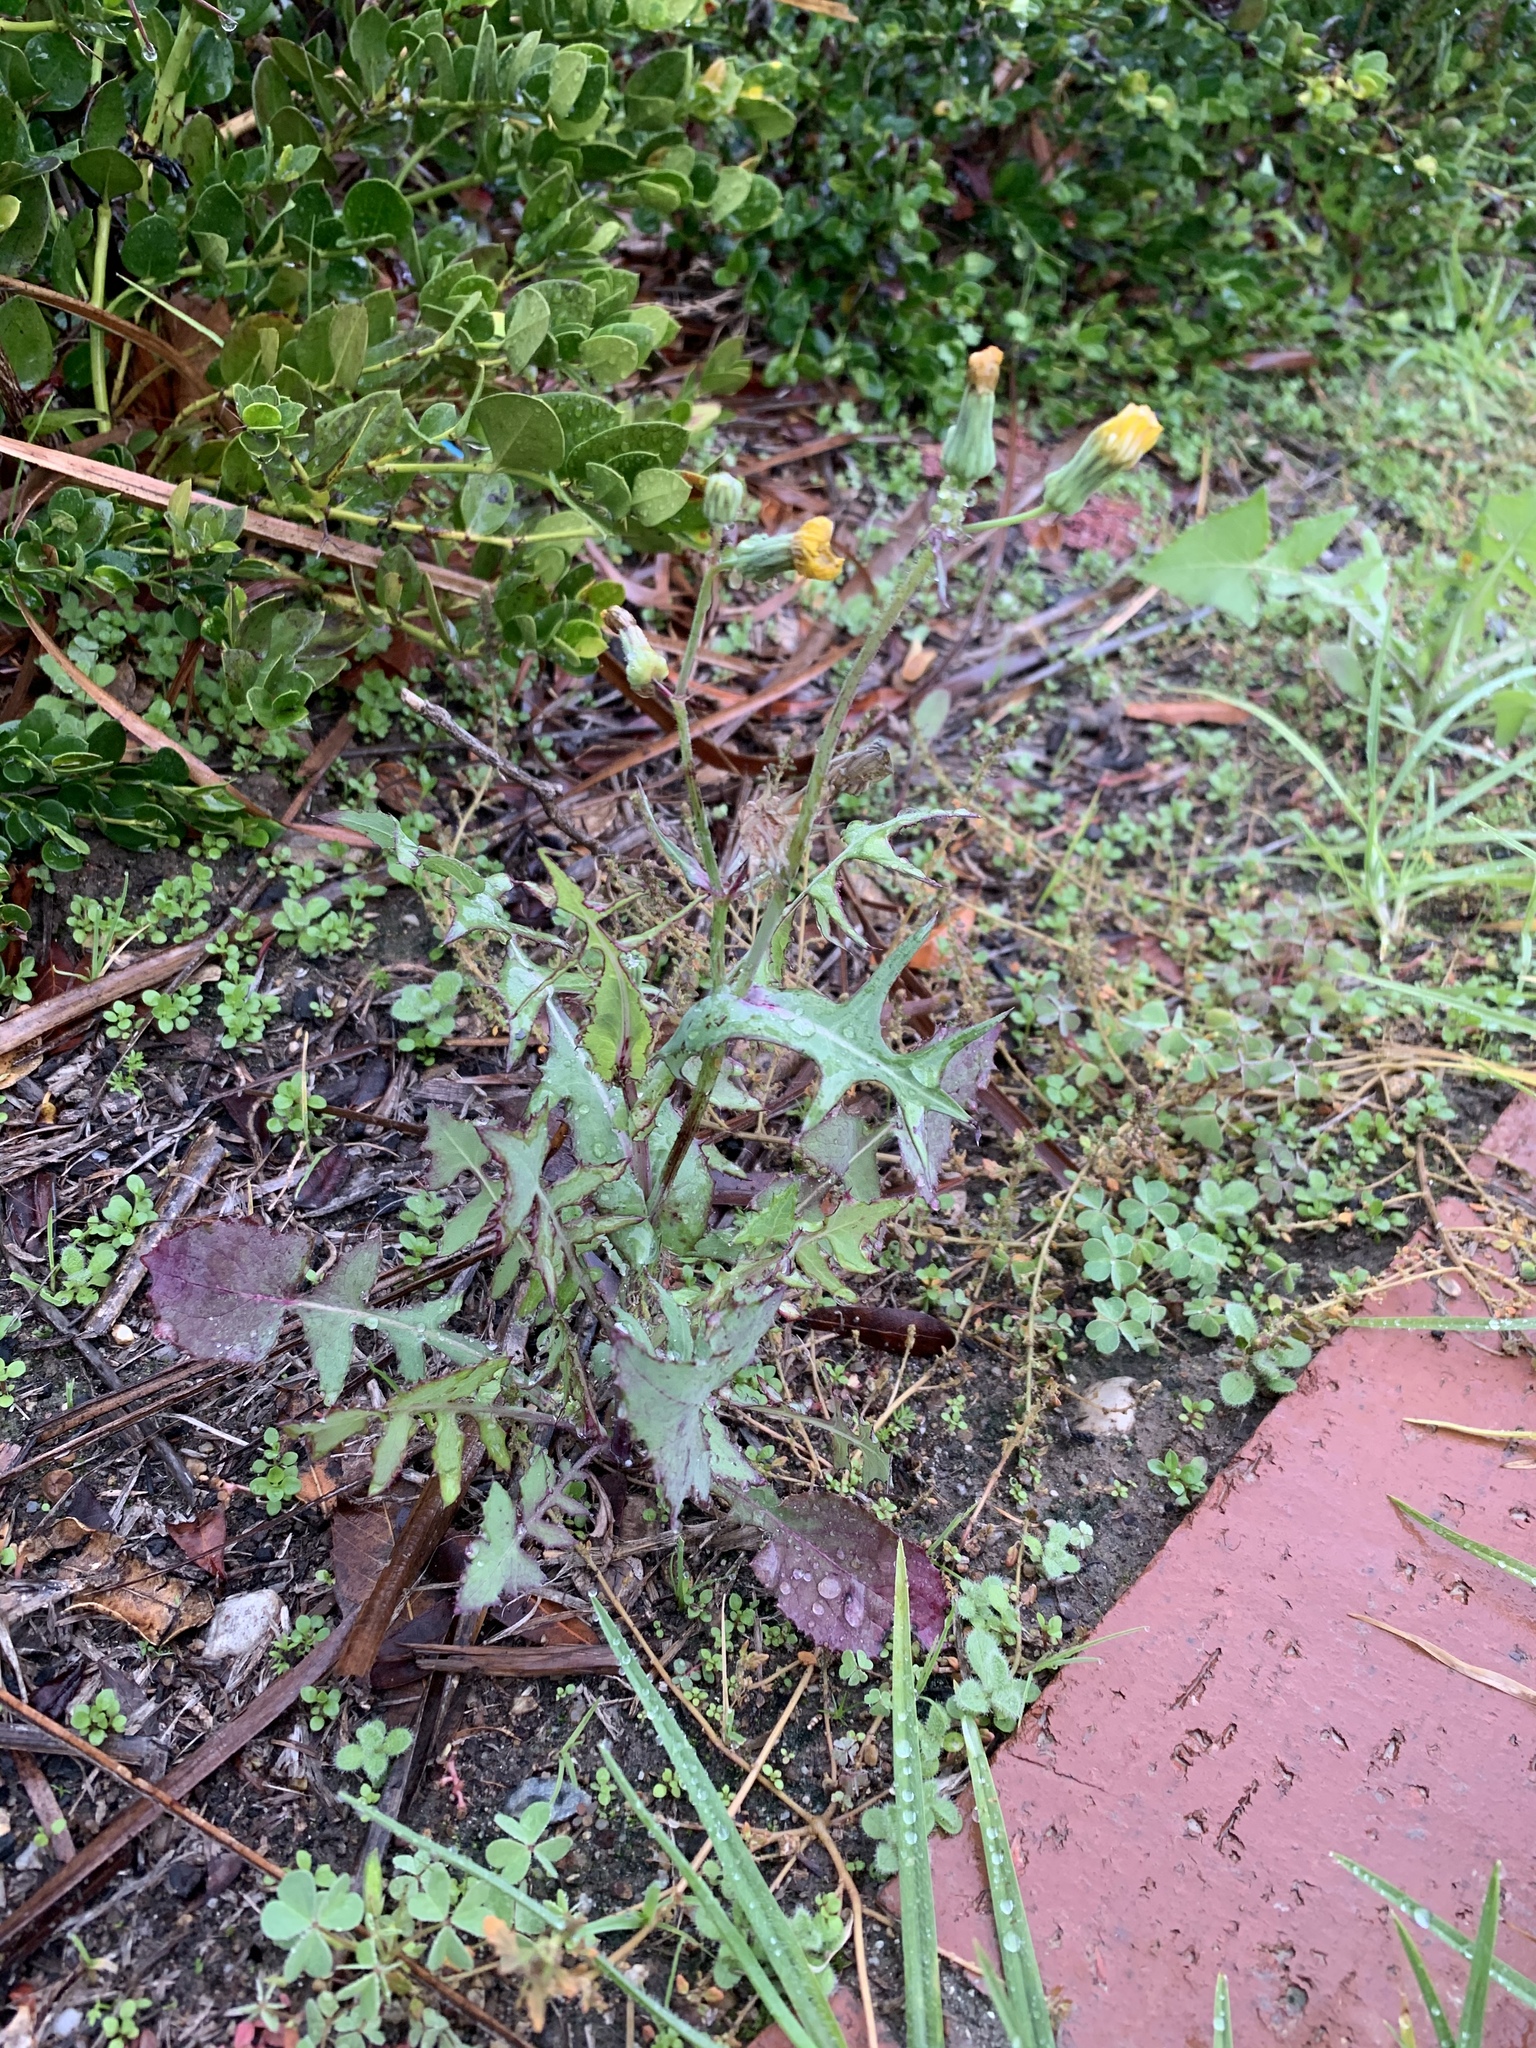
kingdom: Plantae
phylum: Tracheophyta
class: Magnoliopsida
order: Asterales
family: Asteraceae
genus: Sonchus
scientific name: Sonchus oleraceus
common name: Common sowthistle
